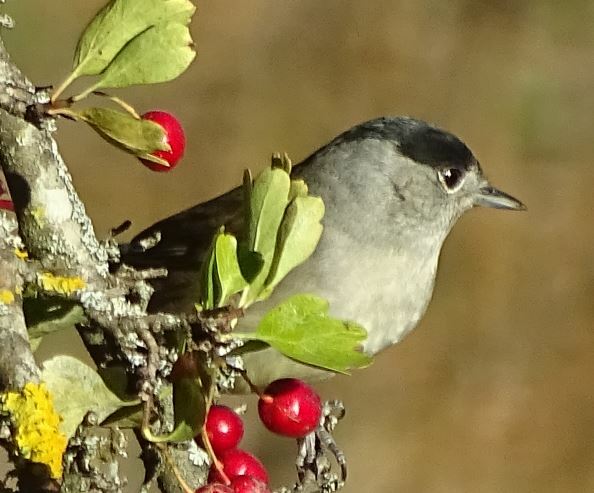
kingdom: Animalia
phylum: Chordata
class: Aves
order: Passeriformes
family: Sylviidae
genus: Sylvia
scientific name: Sylvia atricapilla
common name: Eurasian blackcap
